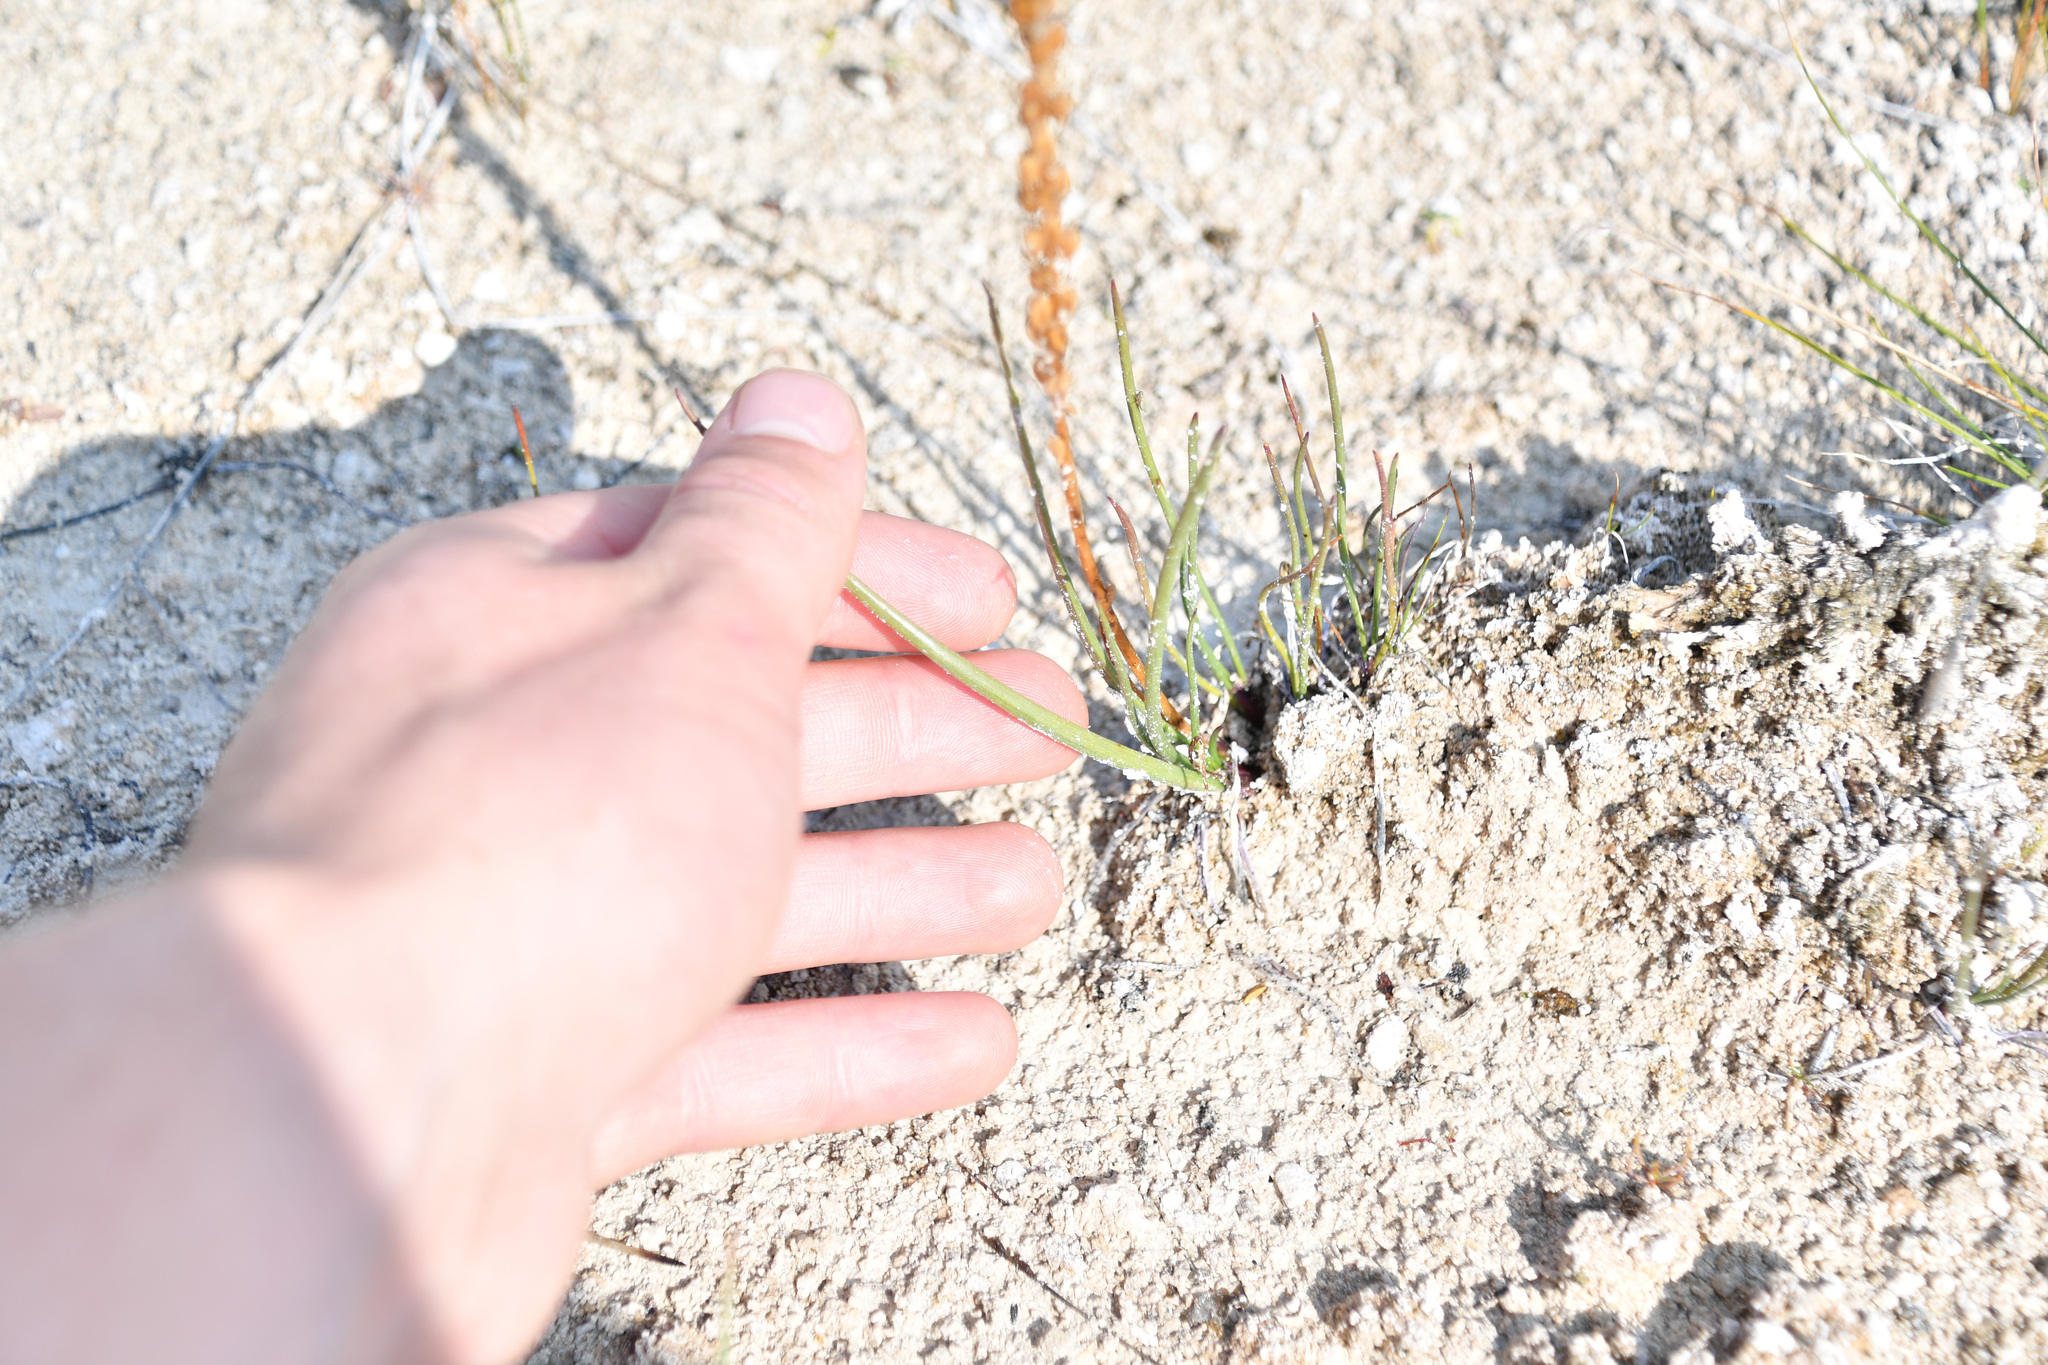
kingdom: Plantae
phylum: Tracheophyta
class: Liliopsida
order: Alismatales
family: Juncaginaceae
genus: Triglochin
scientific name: Triglochin maritima
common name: Sea arrowgrass
